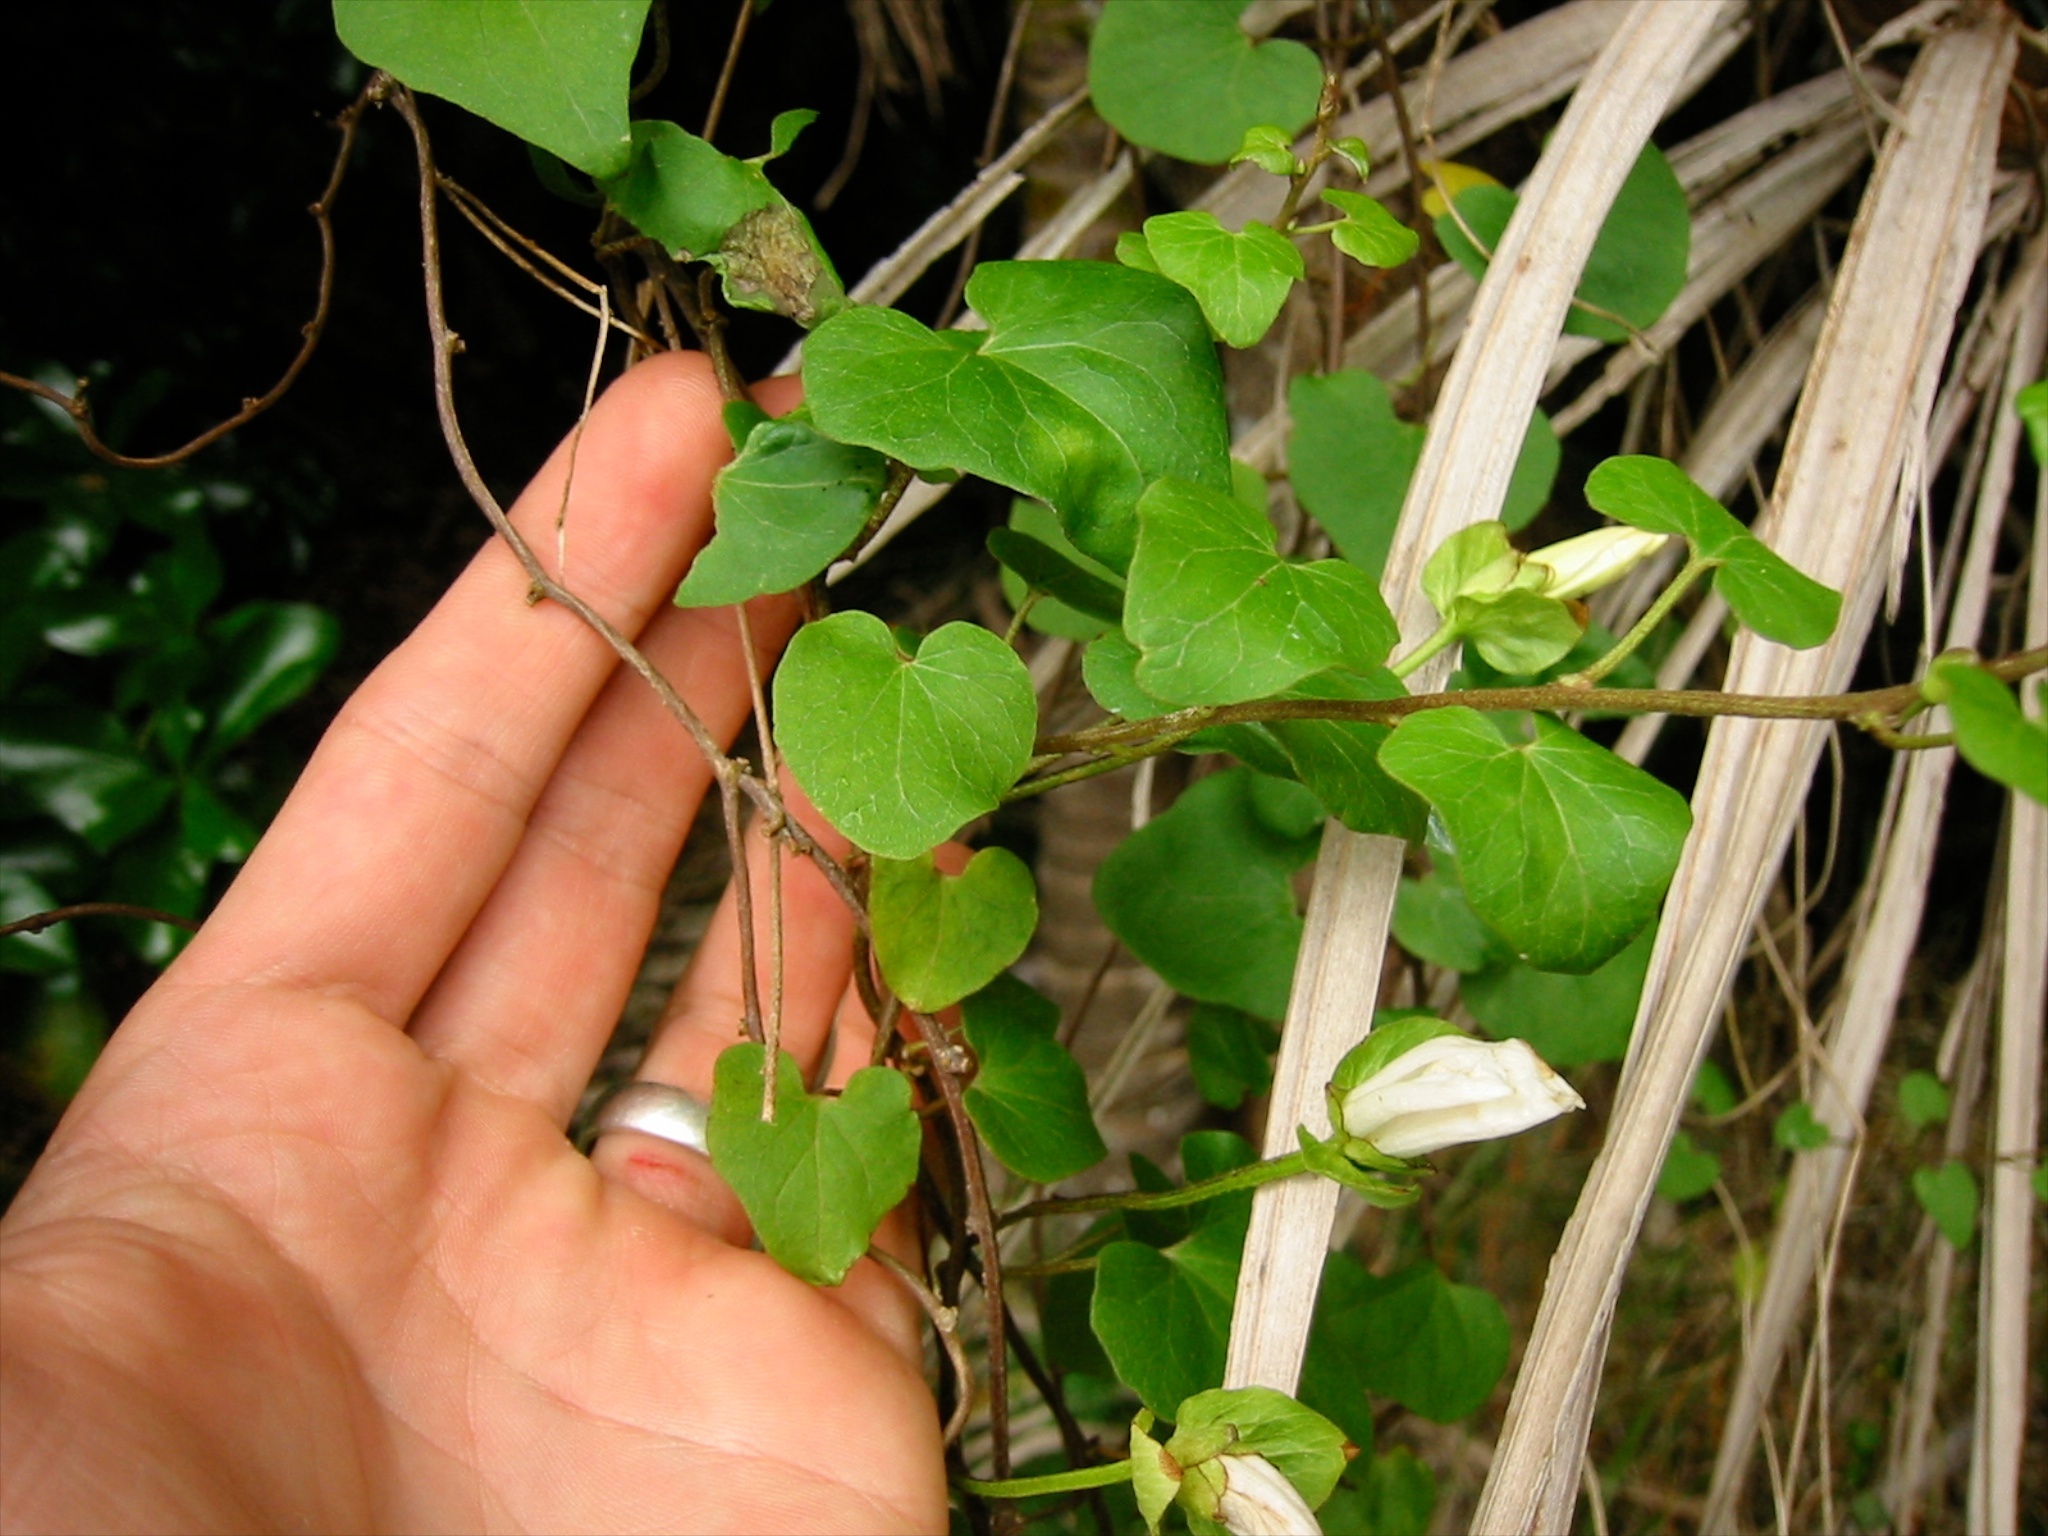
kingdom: Plantae
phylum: Tracheophyta
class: Magnoliopsida
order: Solanales
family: Convolvulaceae
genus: Calystegia
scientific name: Calystegia tuguriorum
